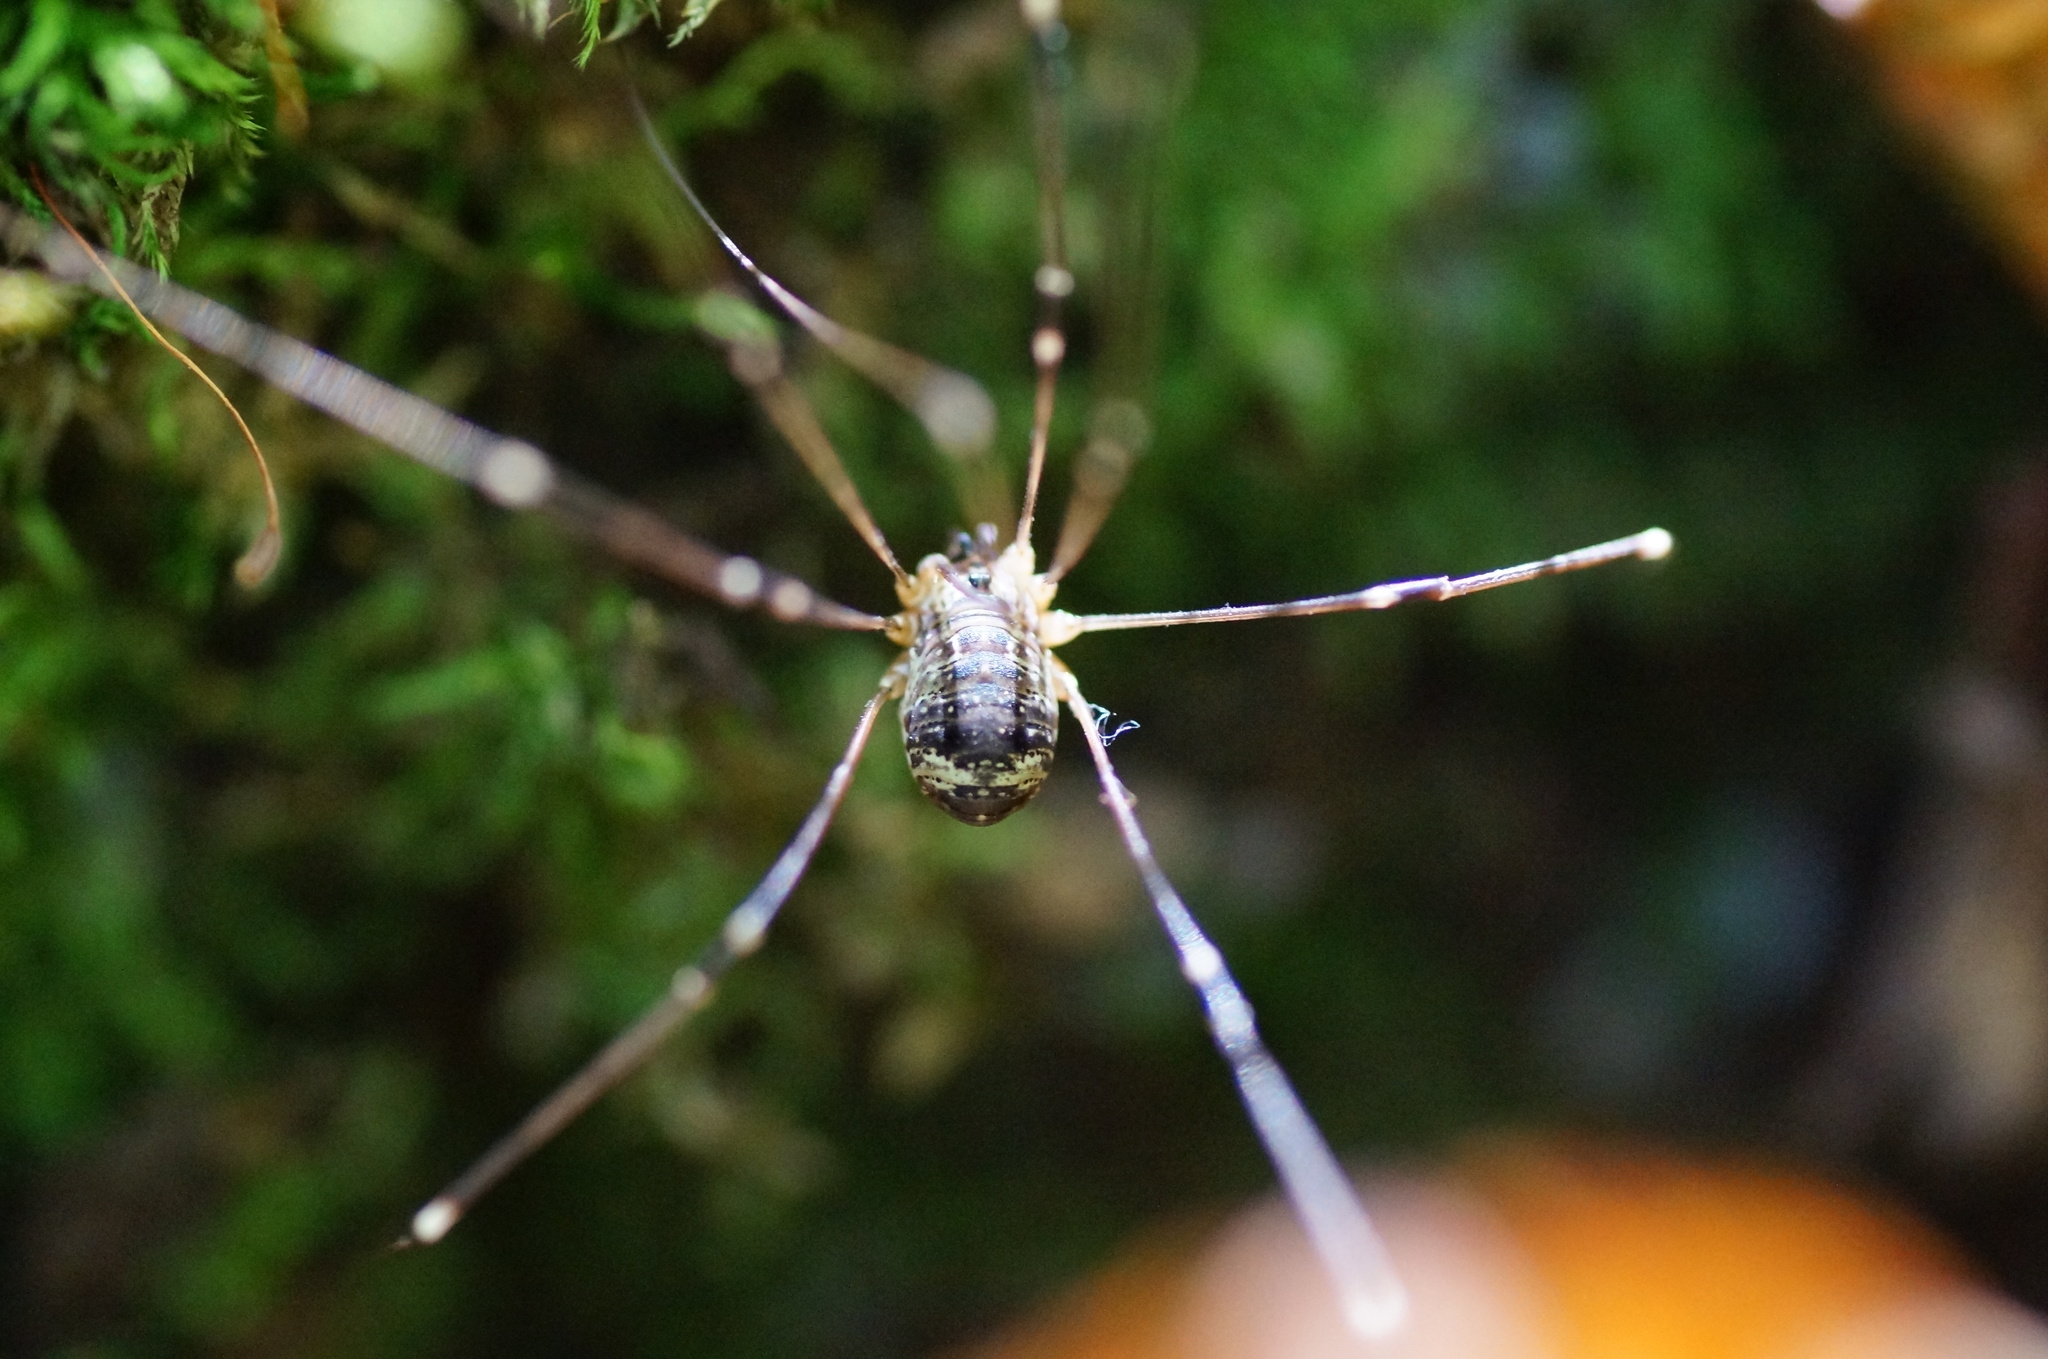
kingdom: Animalia
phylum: Arthropoda
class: Arachnida
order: Opiliones
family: Sclerosomatidae
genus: Leiobunum
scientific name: Leiobunum gracile
